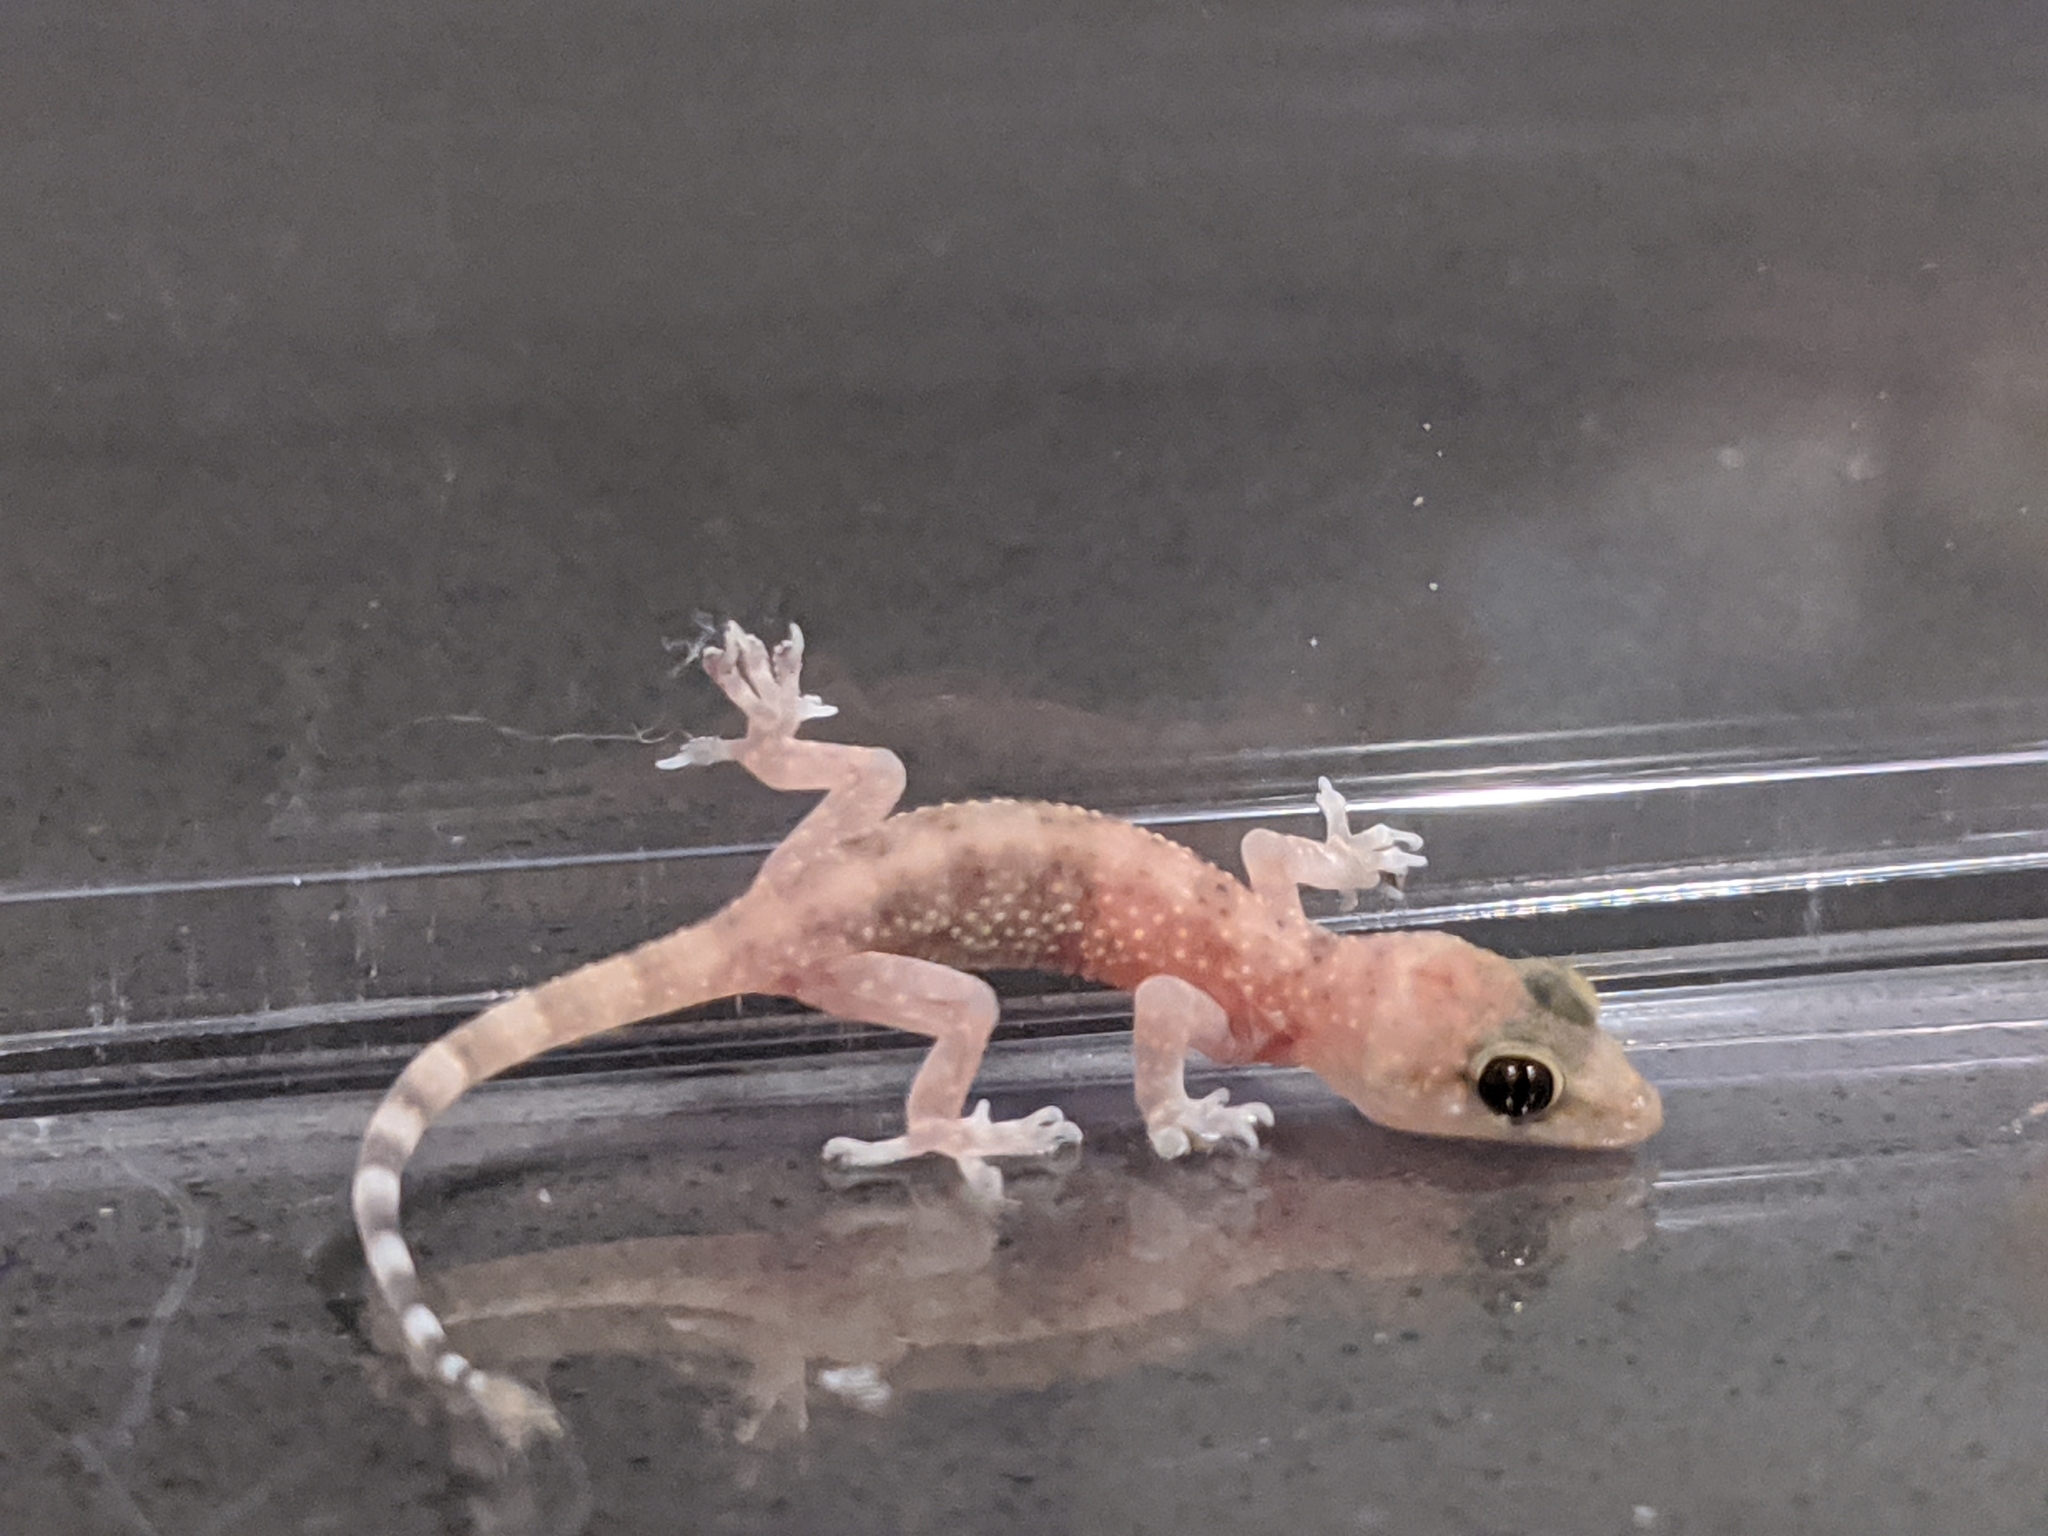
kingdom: Animalia
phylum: Chordata
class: Squamata
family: Gekkonidae
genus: Hemidactylus
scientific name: Hemidactylus turcicus
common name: Turkish gecko
